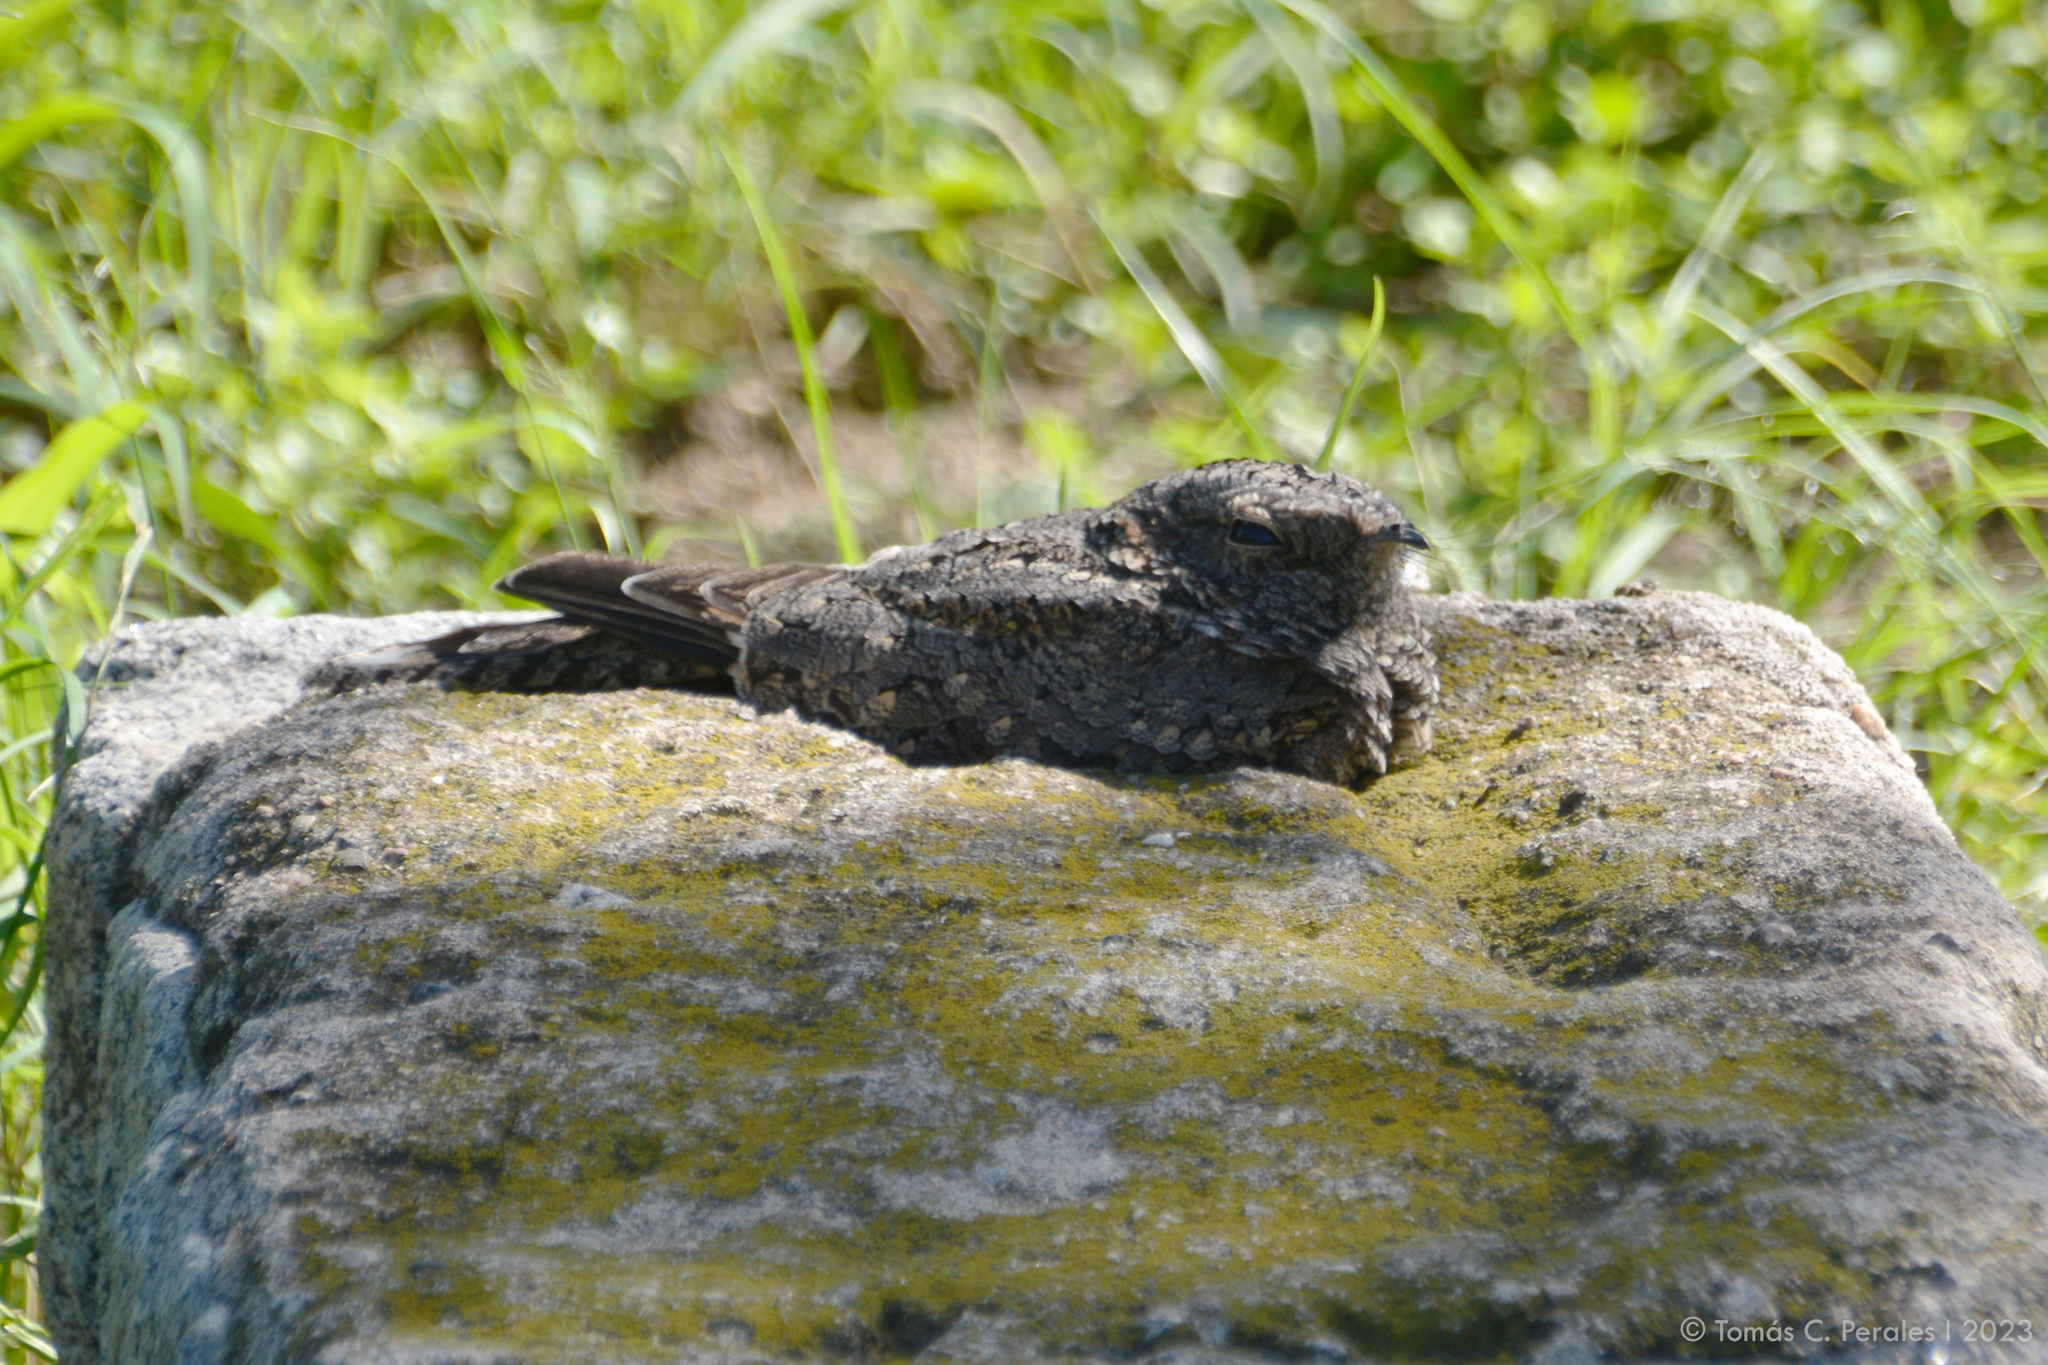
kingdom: Animalia
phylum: Chordata
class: Aves
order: Caprimulgiformes
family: Caprimulgidae
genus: Systellura
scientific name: Systellura longirostris
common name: Band-winged nightjar
